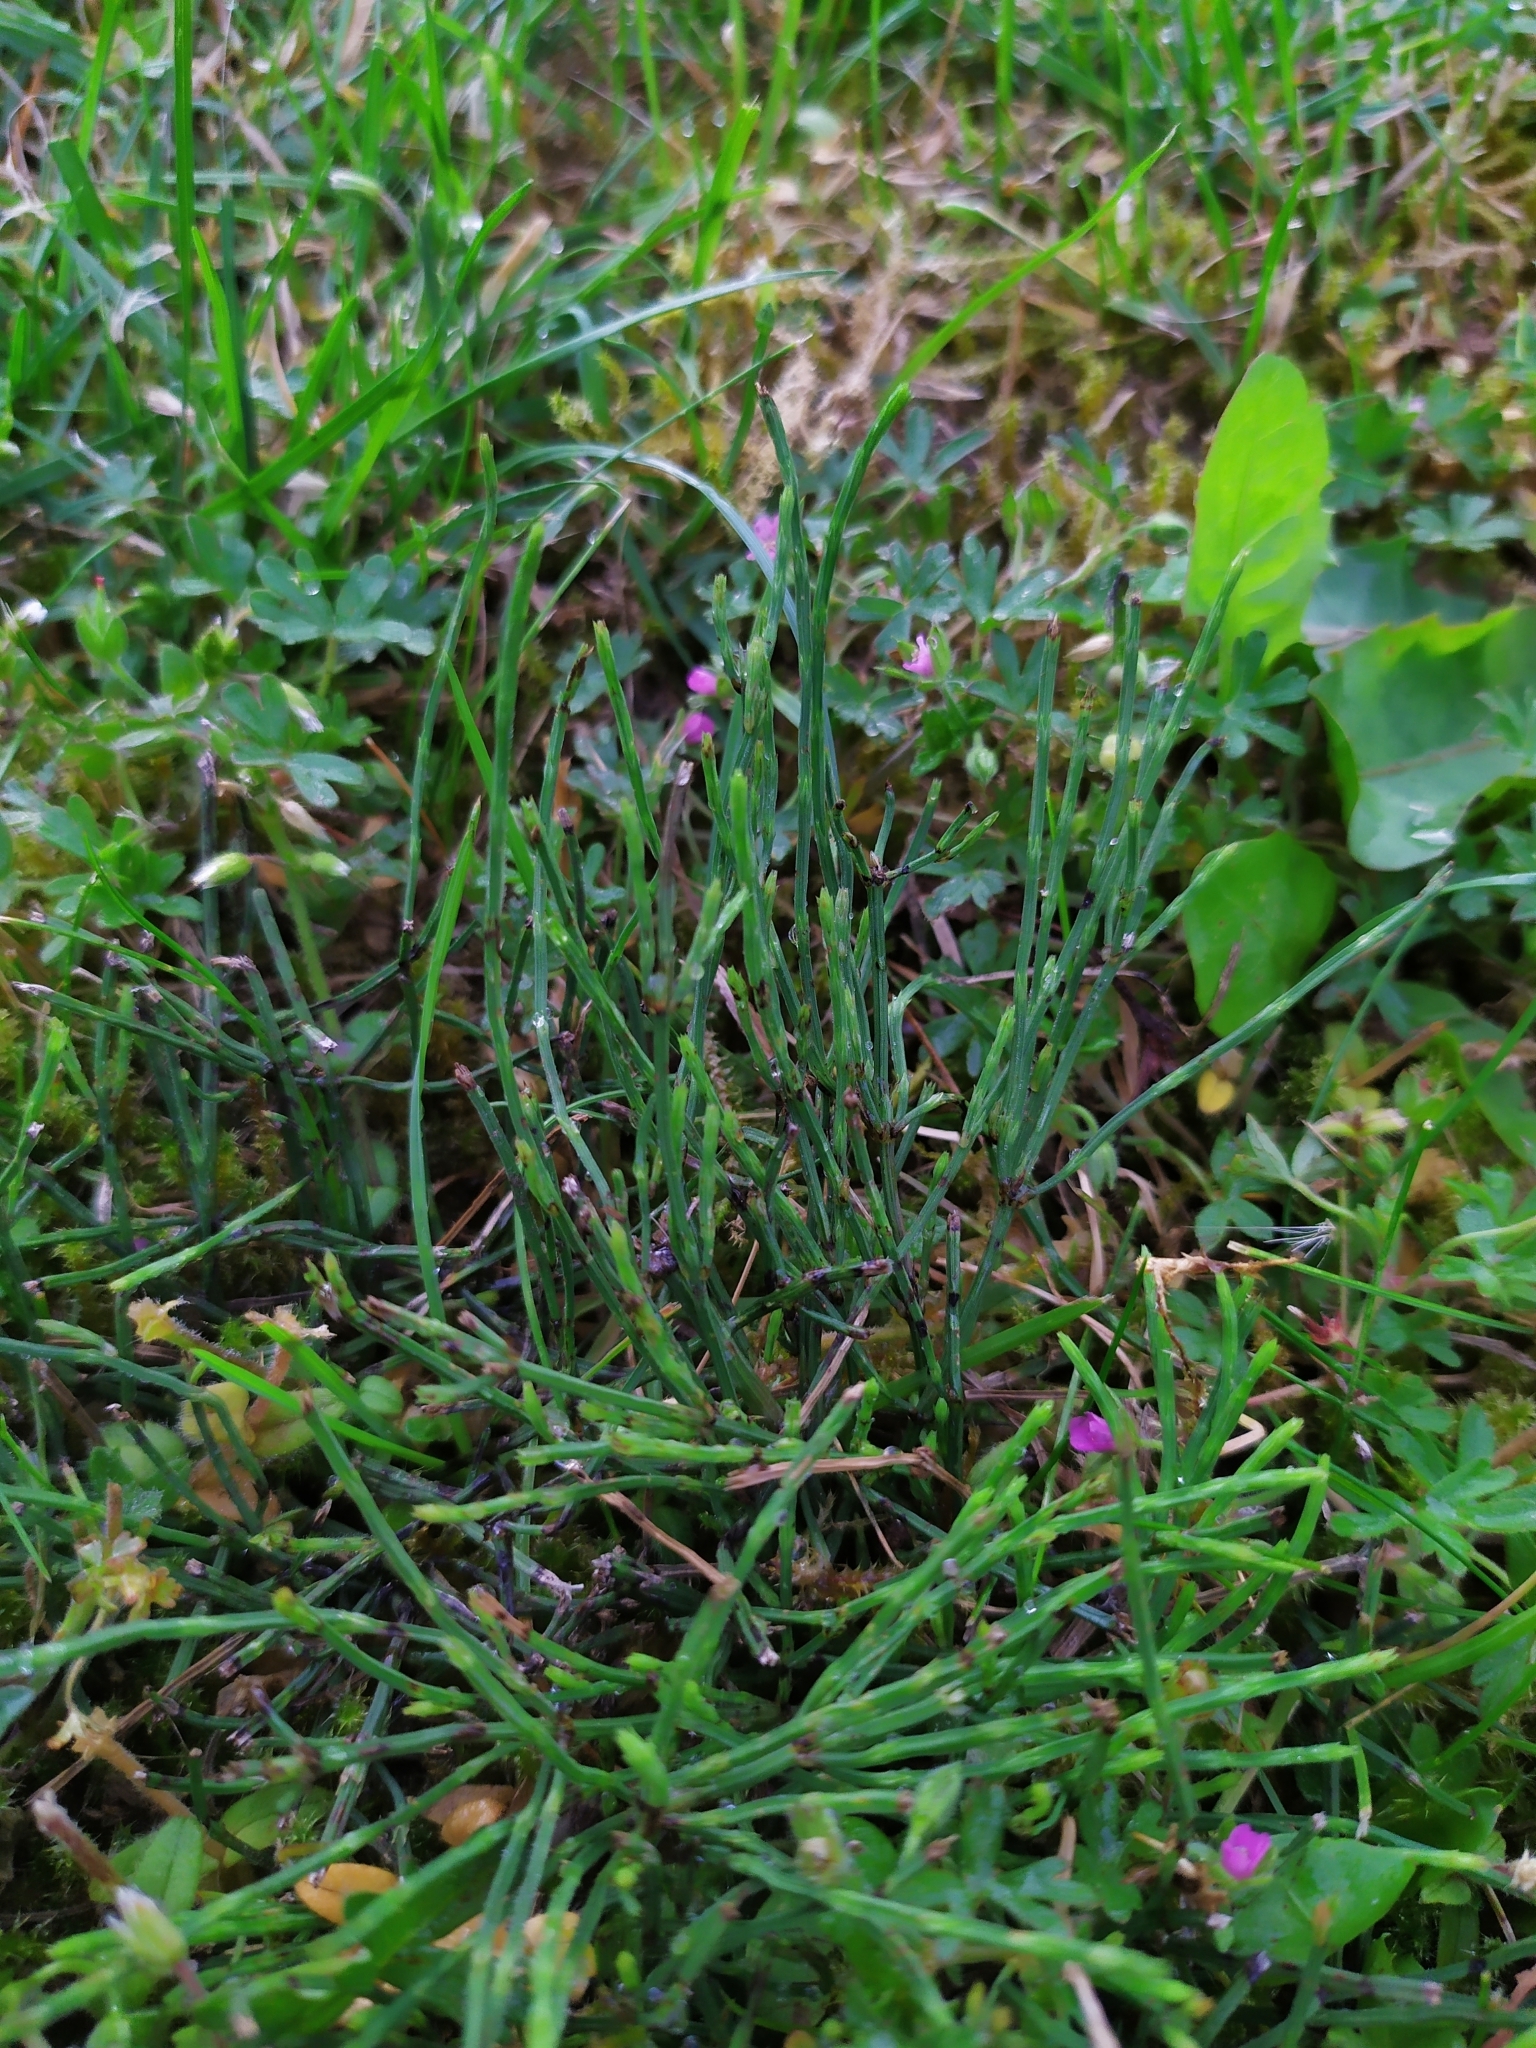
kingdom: Plantae
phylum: Tracheophyta
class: Polypodiopsida
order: Equisetales
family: Equisetaceae
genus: Equisetum
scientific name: Equisetum arvense
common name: Field horsetail
